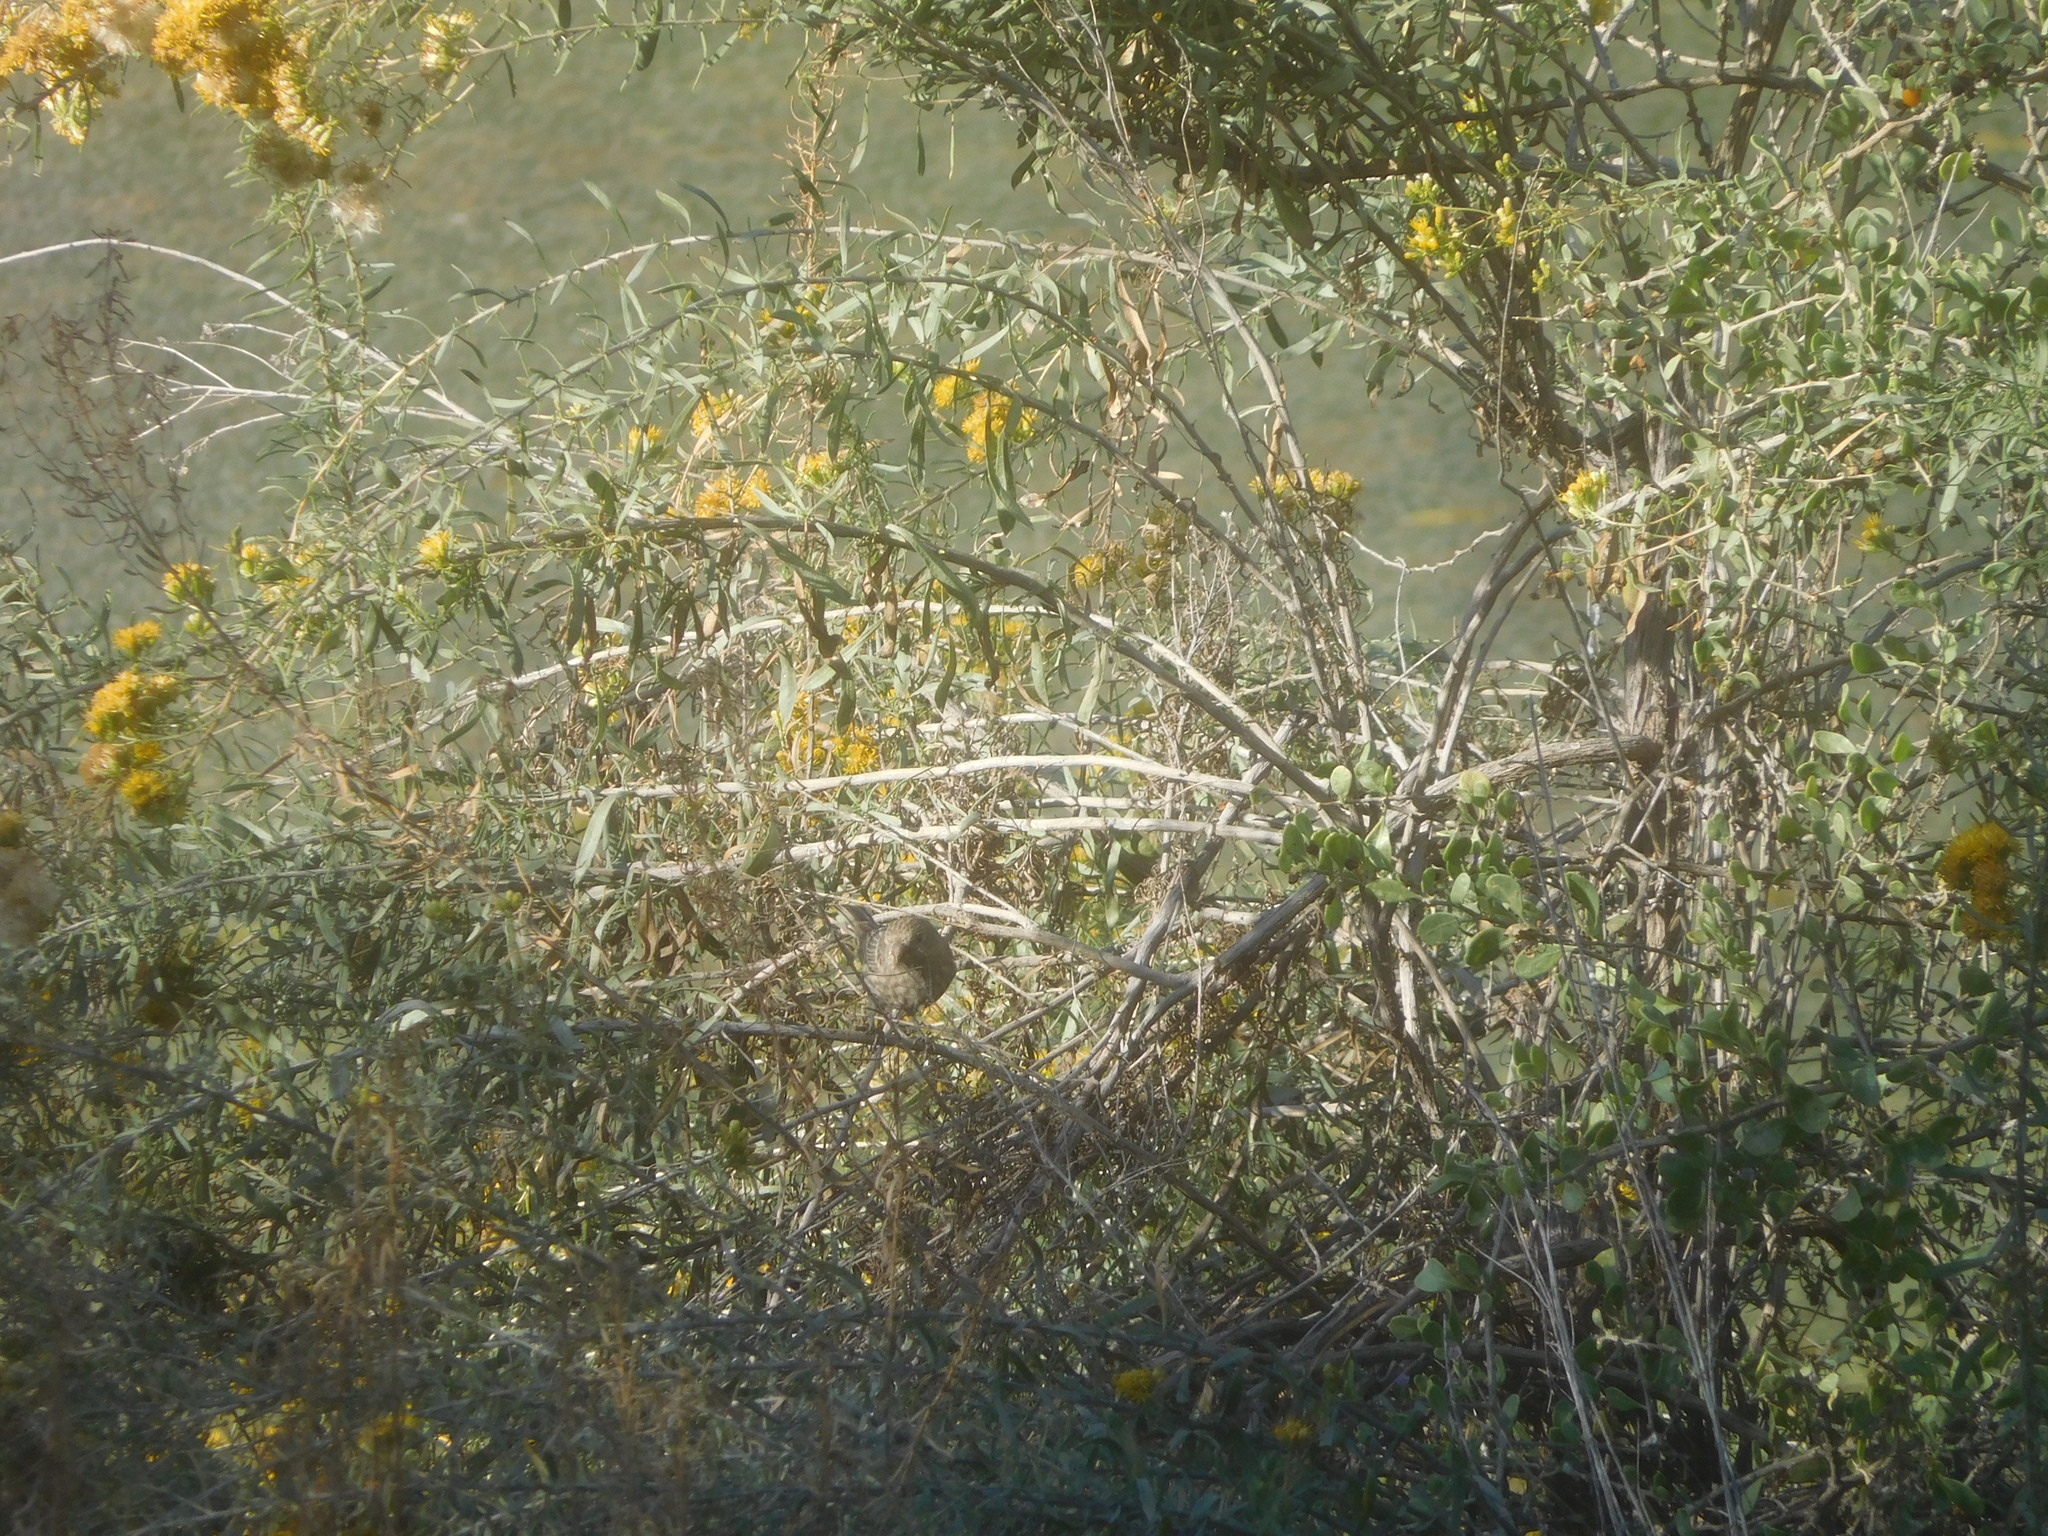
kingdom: Animalia
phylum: Chordata
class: Aves
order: Passeriformes
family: Fringillidae
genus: Haemorhous
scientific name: Haemorhous mexicanus
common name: House finch
